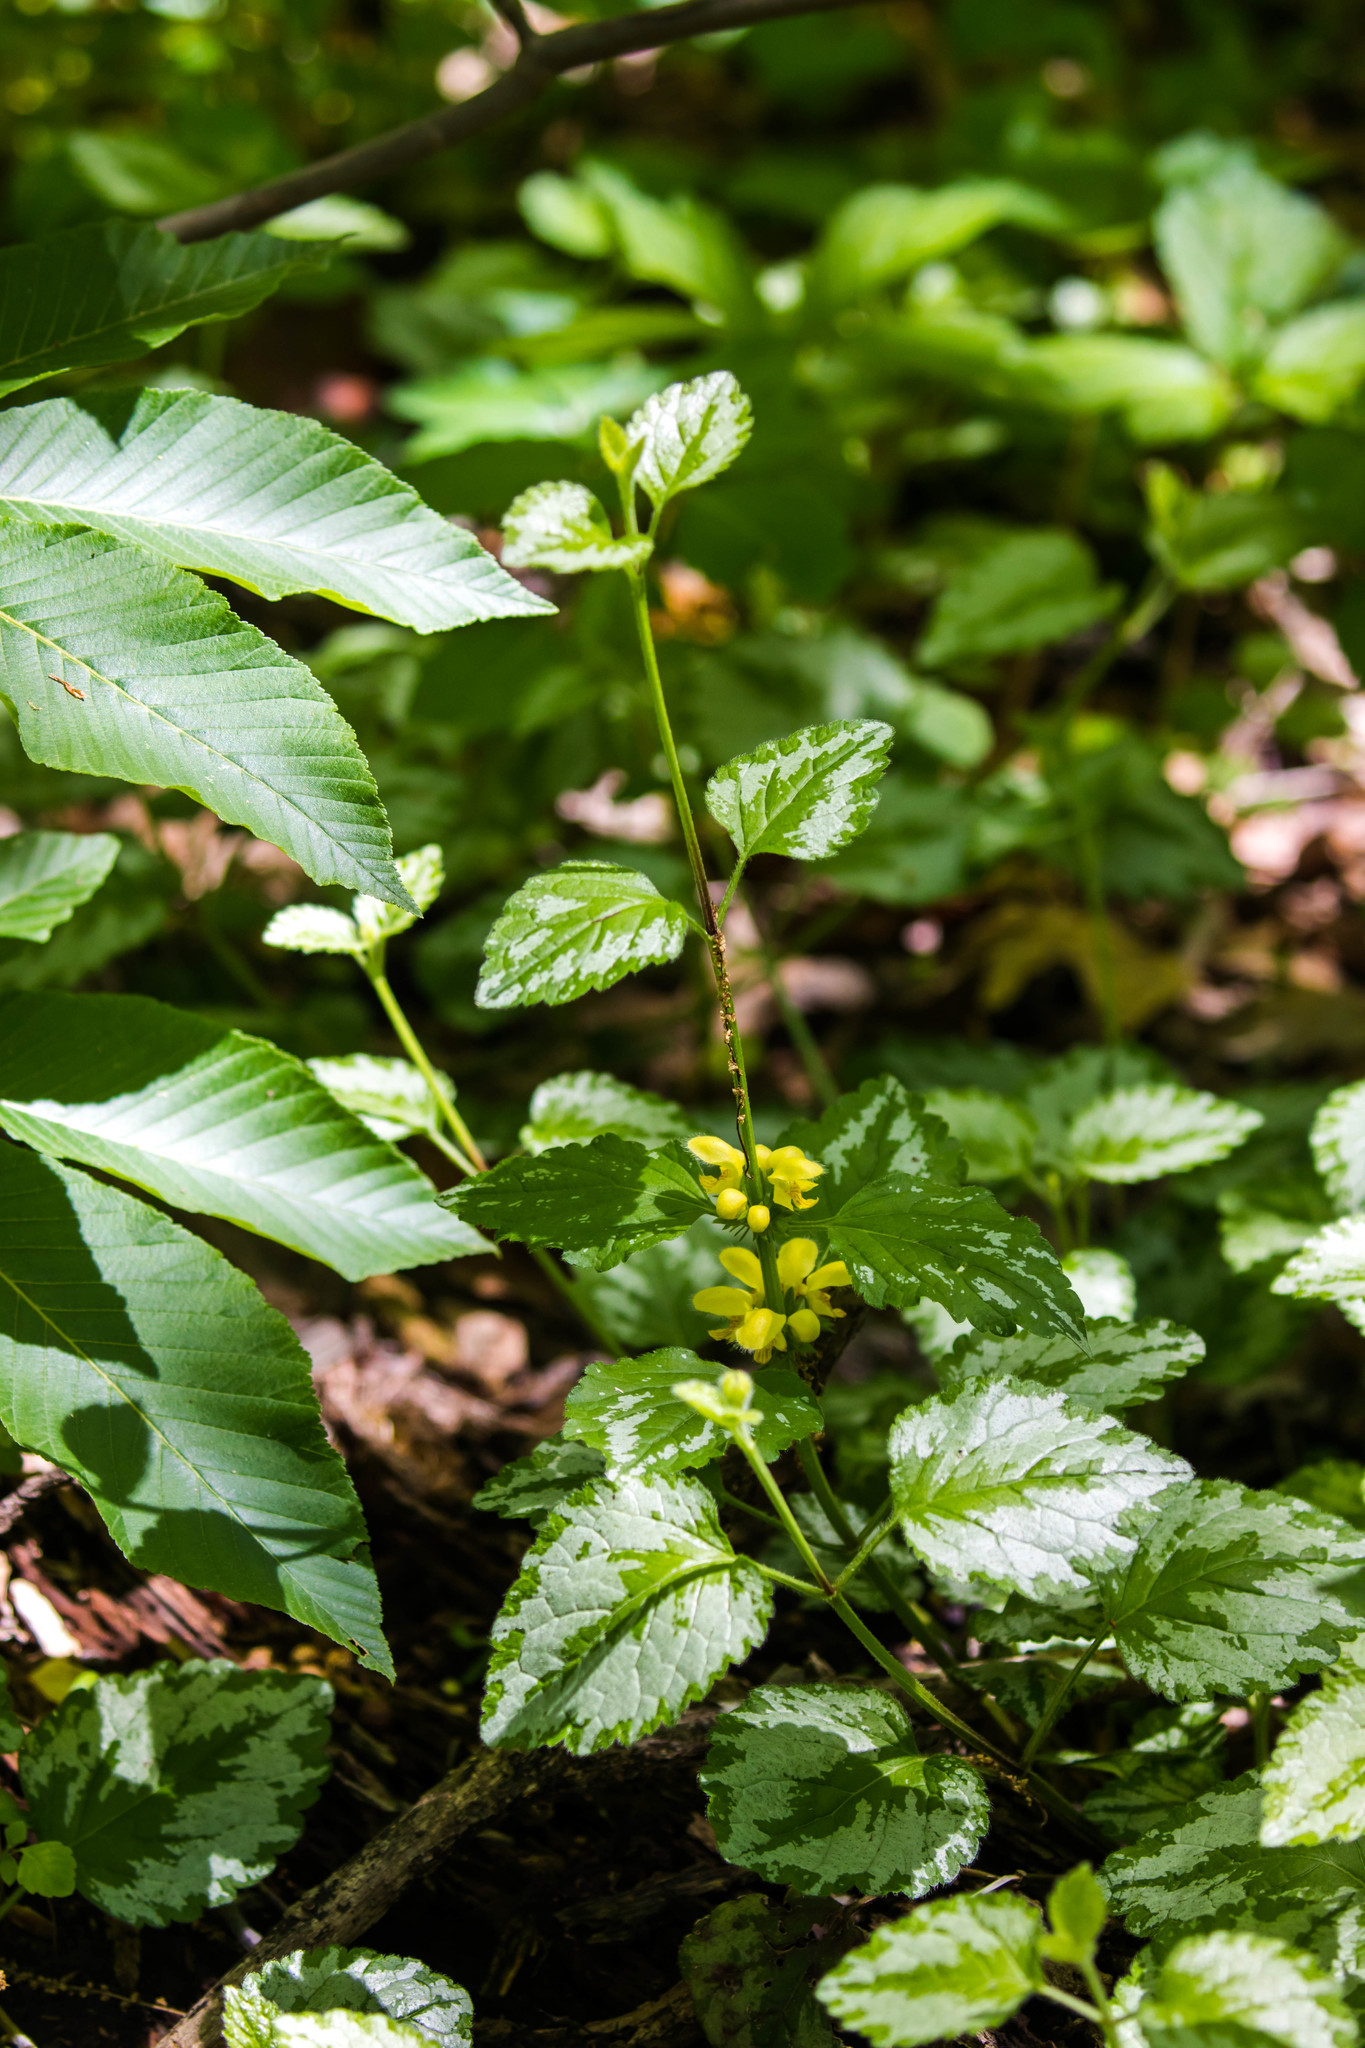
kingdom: Plantae
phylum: Tracheophyta
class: Magnoliopsida
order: Lamiales
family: Lamiaceae
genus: Lamium
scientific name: Lamium galeobdolon
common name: Yellow archangel
